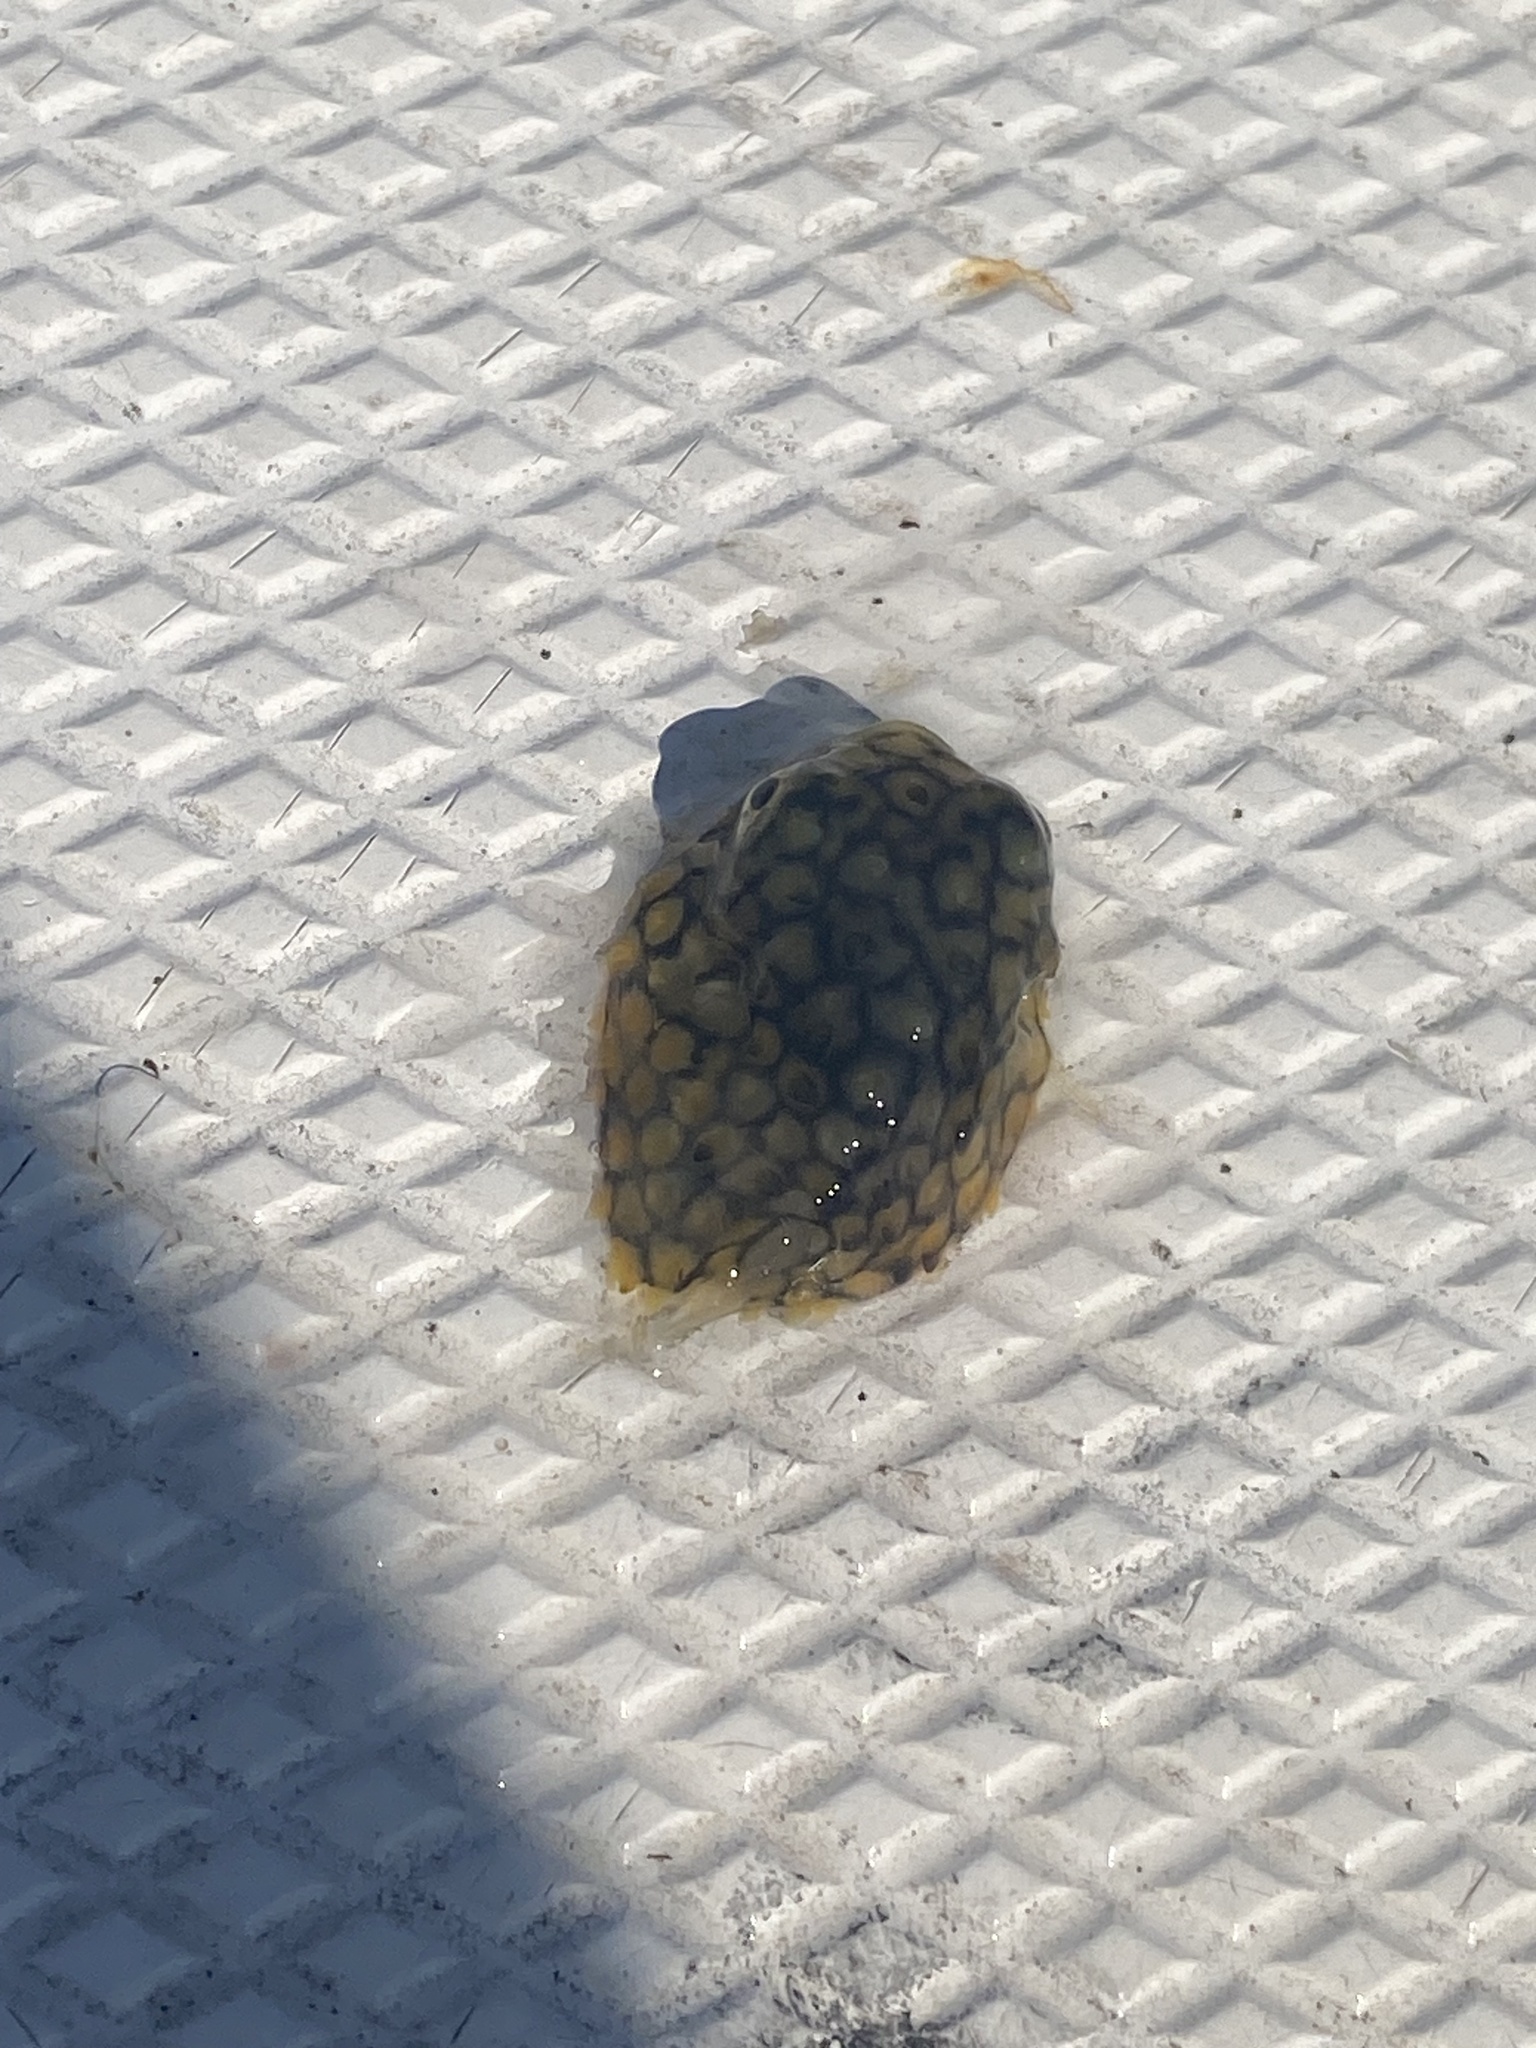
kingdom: Animalia
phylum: Chordata
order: Tetraodontiformes
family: Diodontidae
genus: Chilomycterus
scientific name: Chilomycterus schoepfii
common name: Striped burrfish
